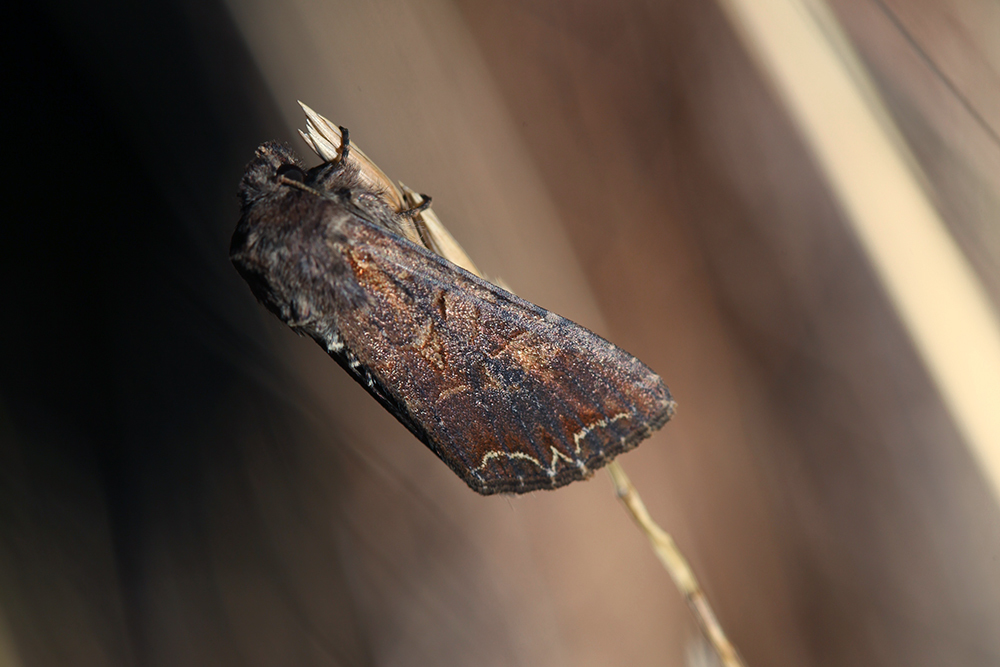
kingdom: Animalia
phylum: Arthropoda
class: Insecta
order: Lepidoptera
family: Noctuidae
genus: Lacanobia
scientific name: Lacanobia suasa
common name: Dog's tooth
